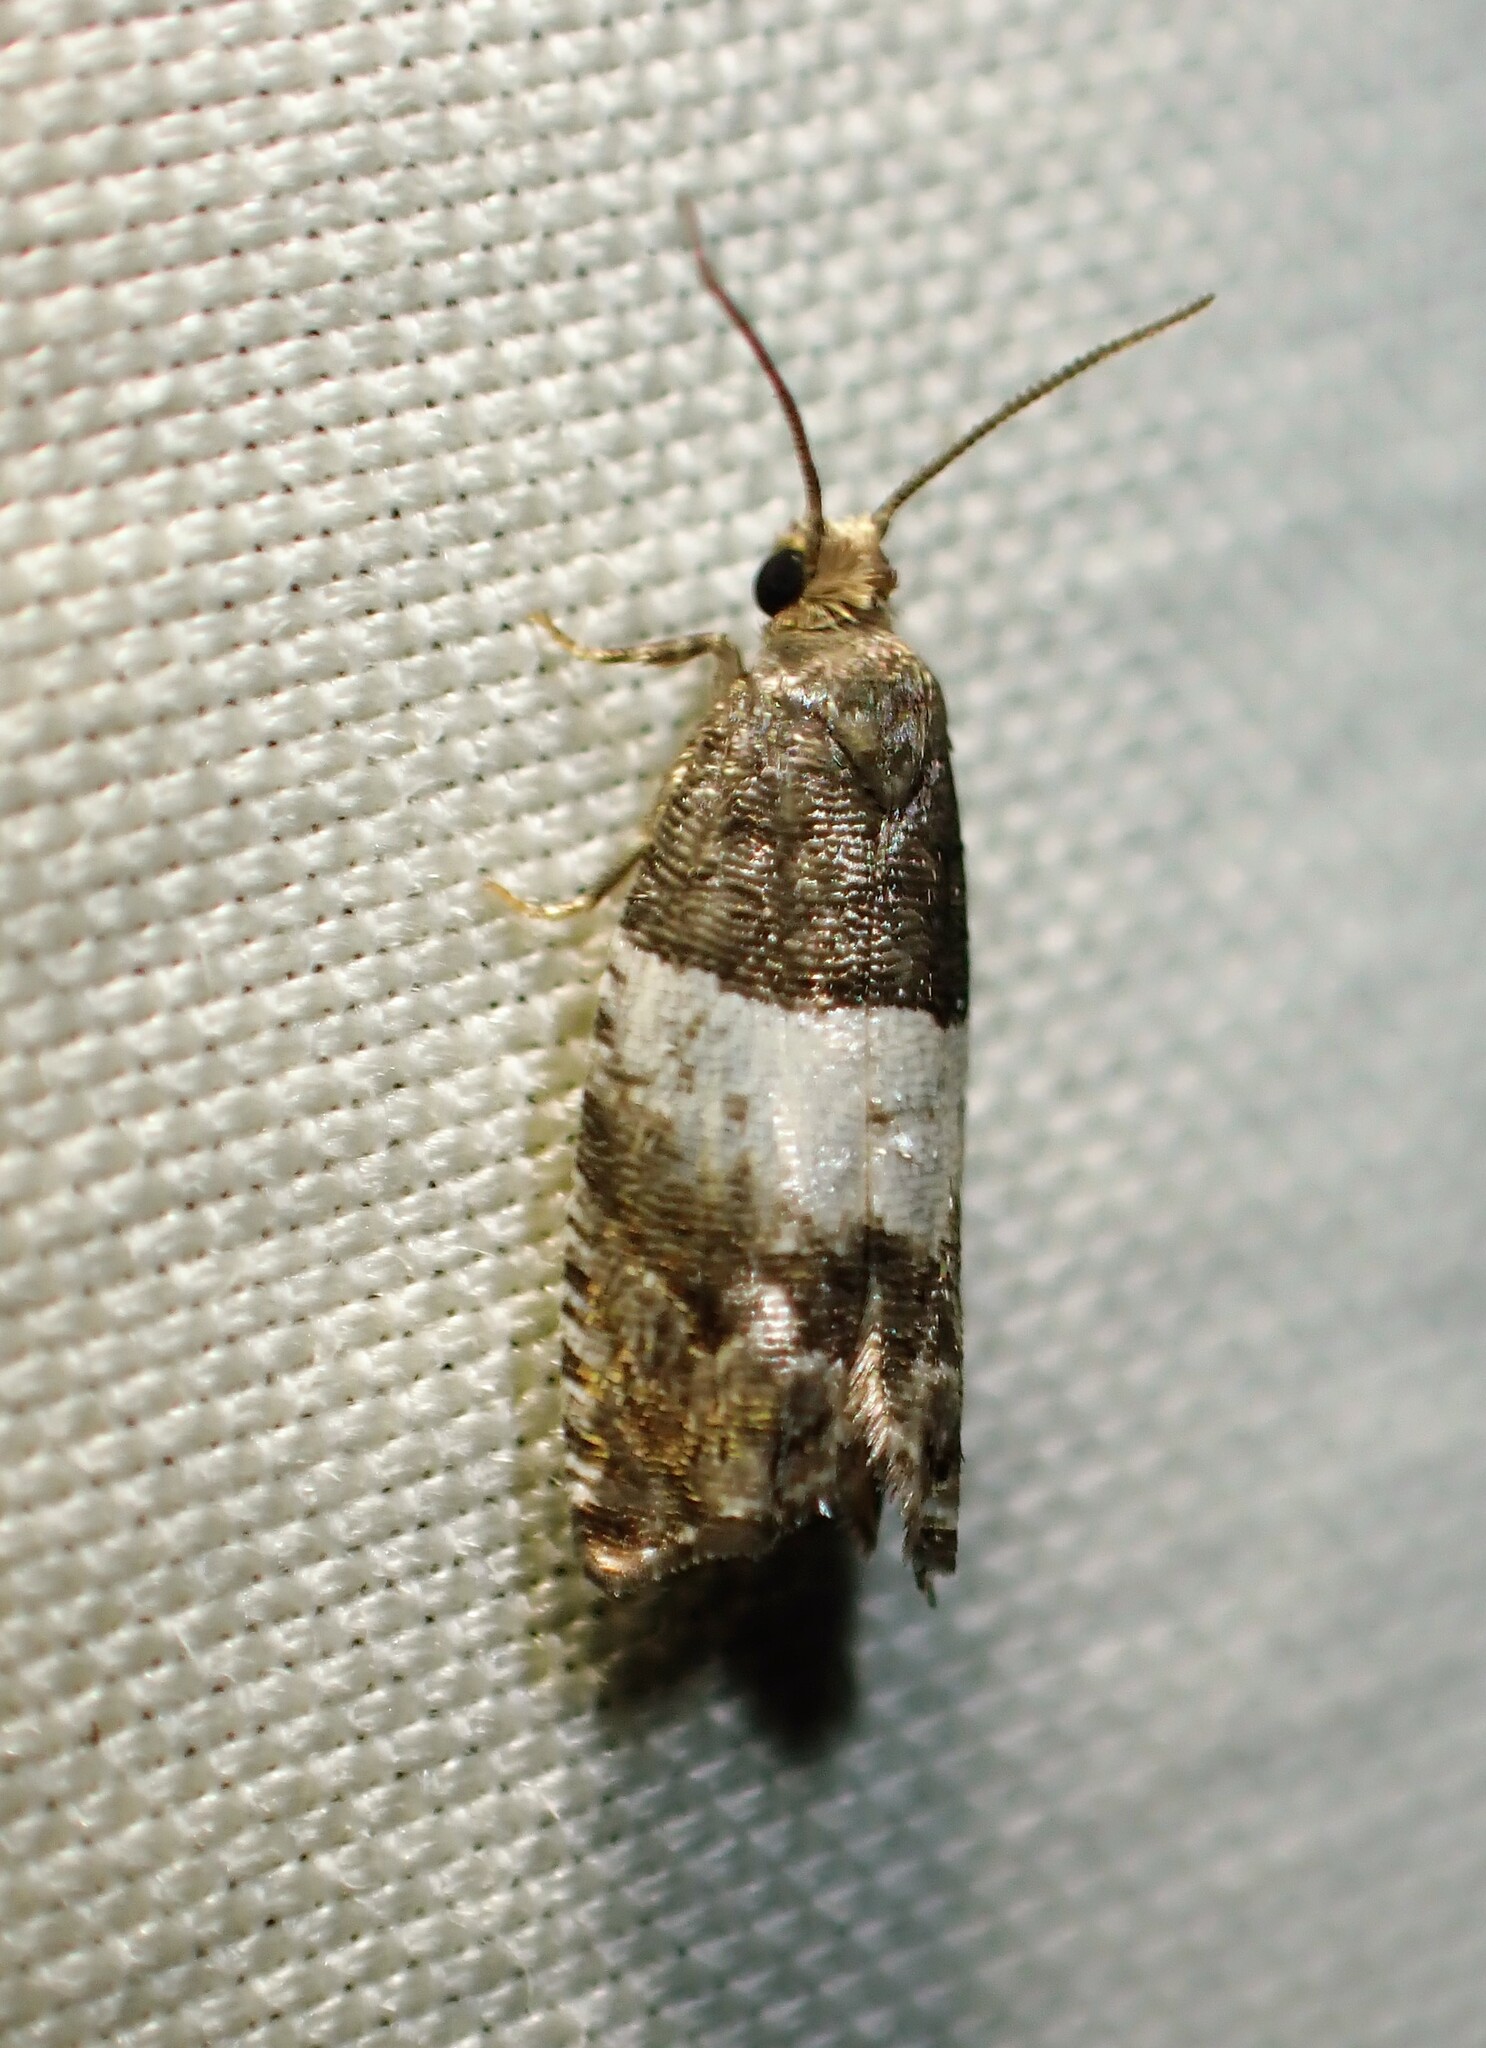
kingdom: Animalia
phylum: Arthropoda
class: Insecta
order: Lepidoptera
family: Tortricidae
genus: Gypsonoma
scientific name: Gypsonoma substitutionis
